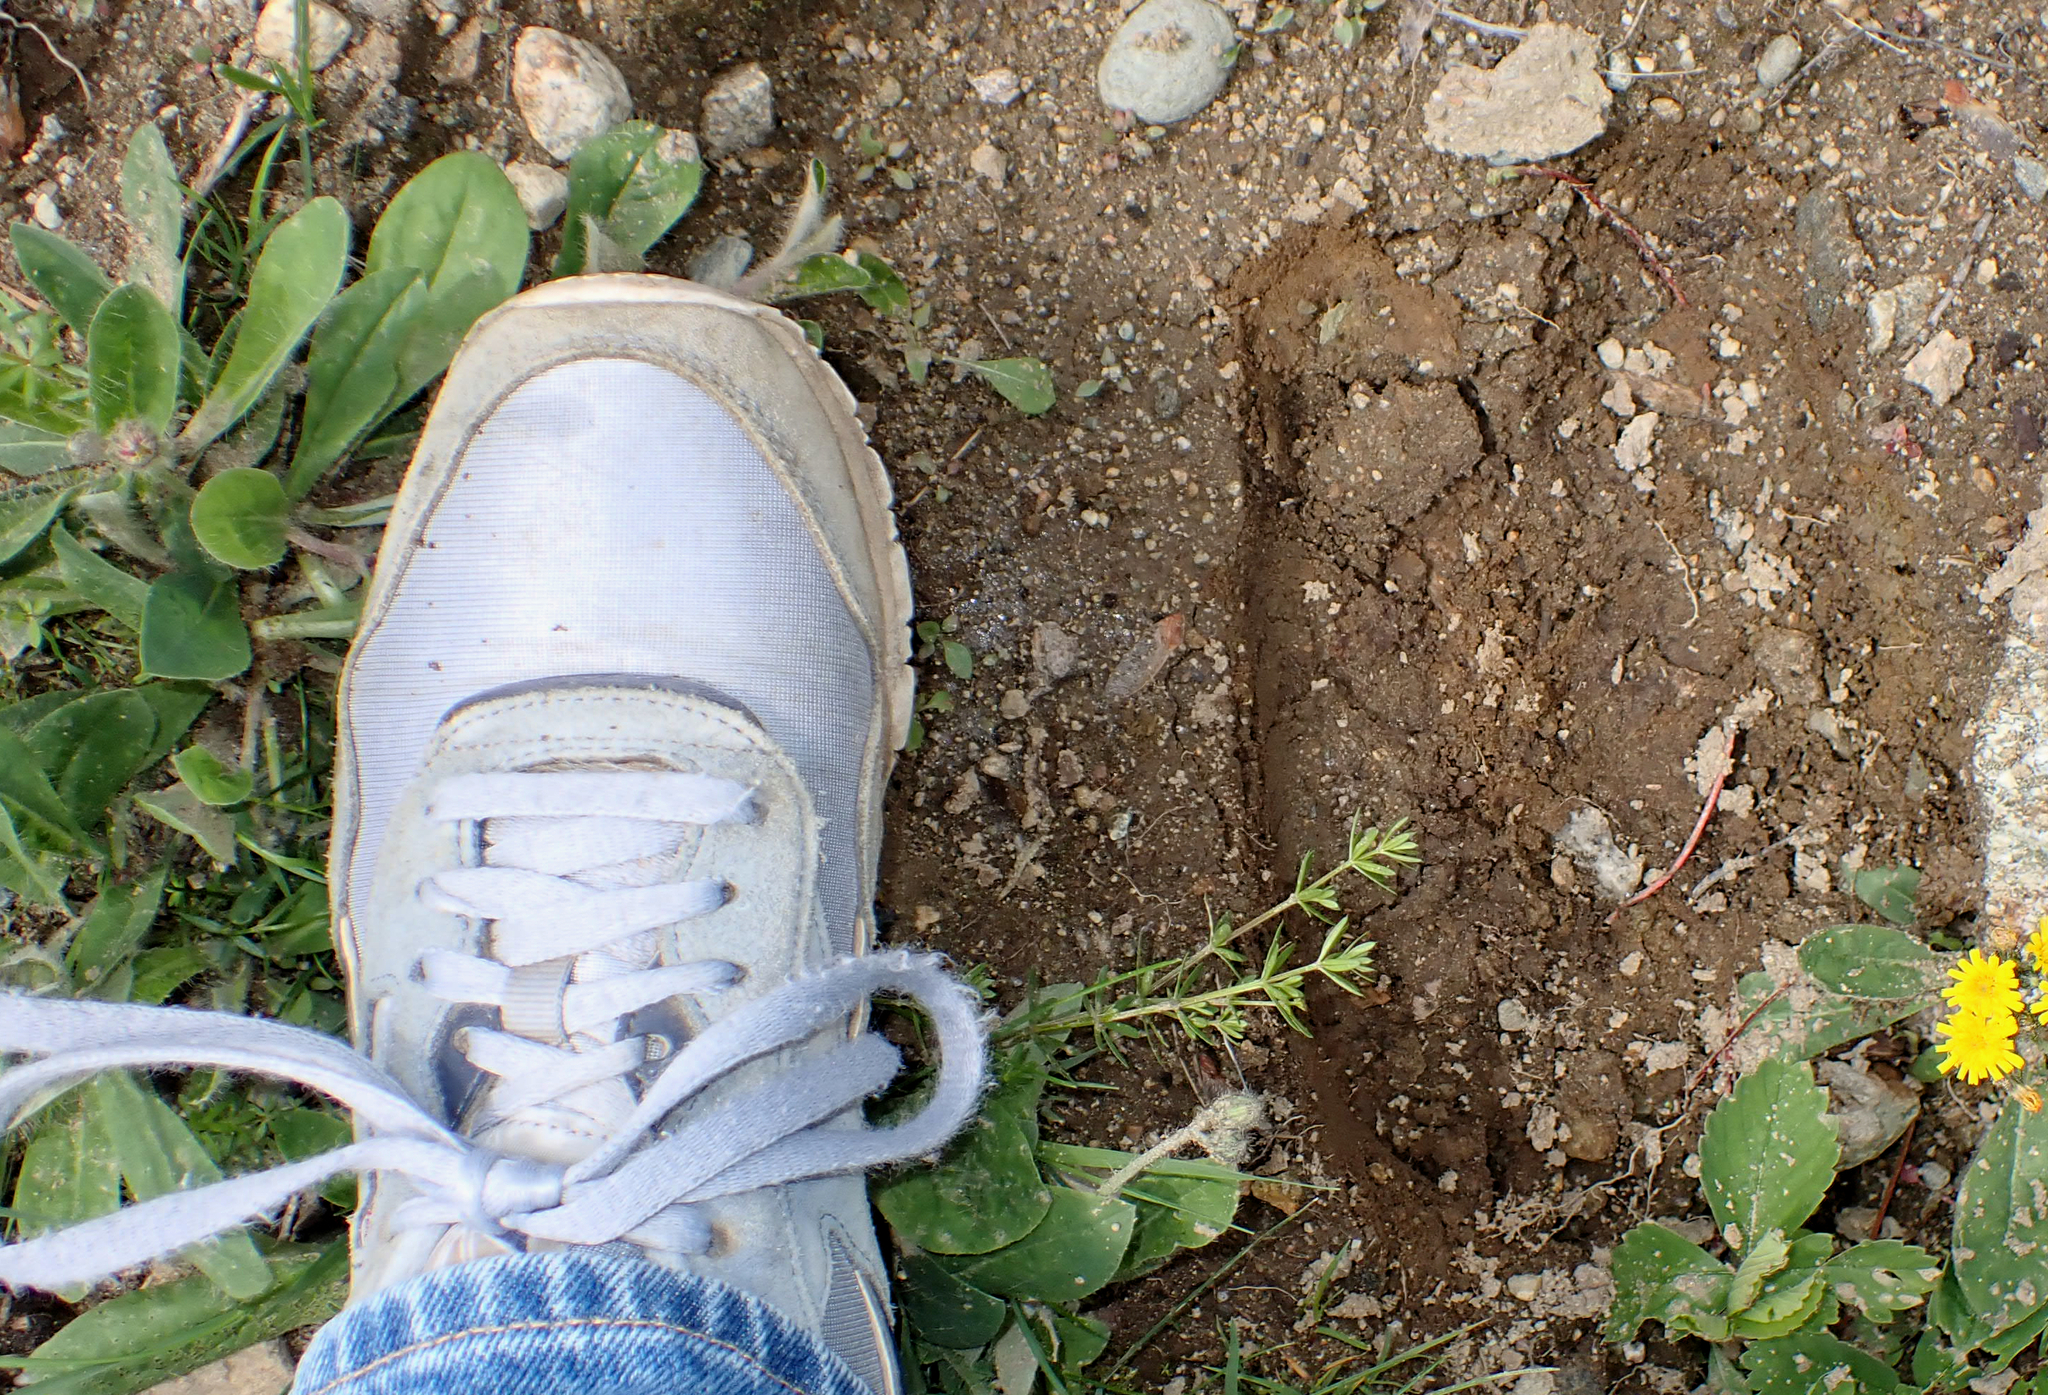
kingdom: Animalia
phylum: Chordata
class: Mammalia
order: Artiodactyla
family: Cervidae
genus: Alces
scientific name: Alces alces
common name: Moose
